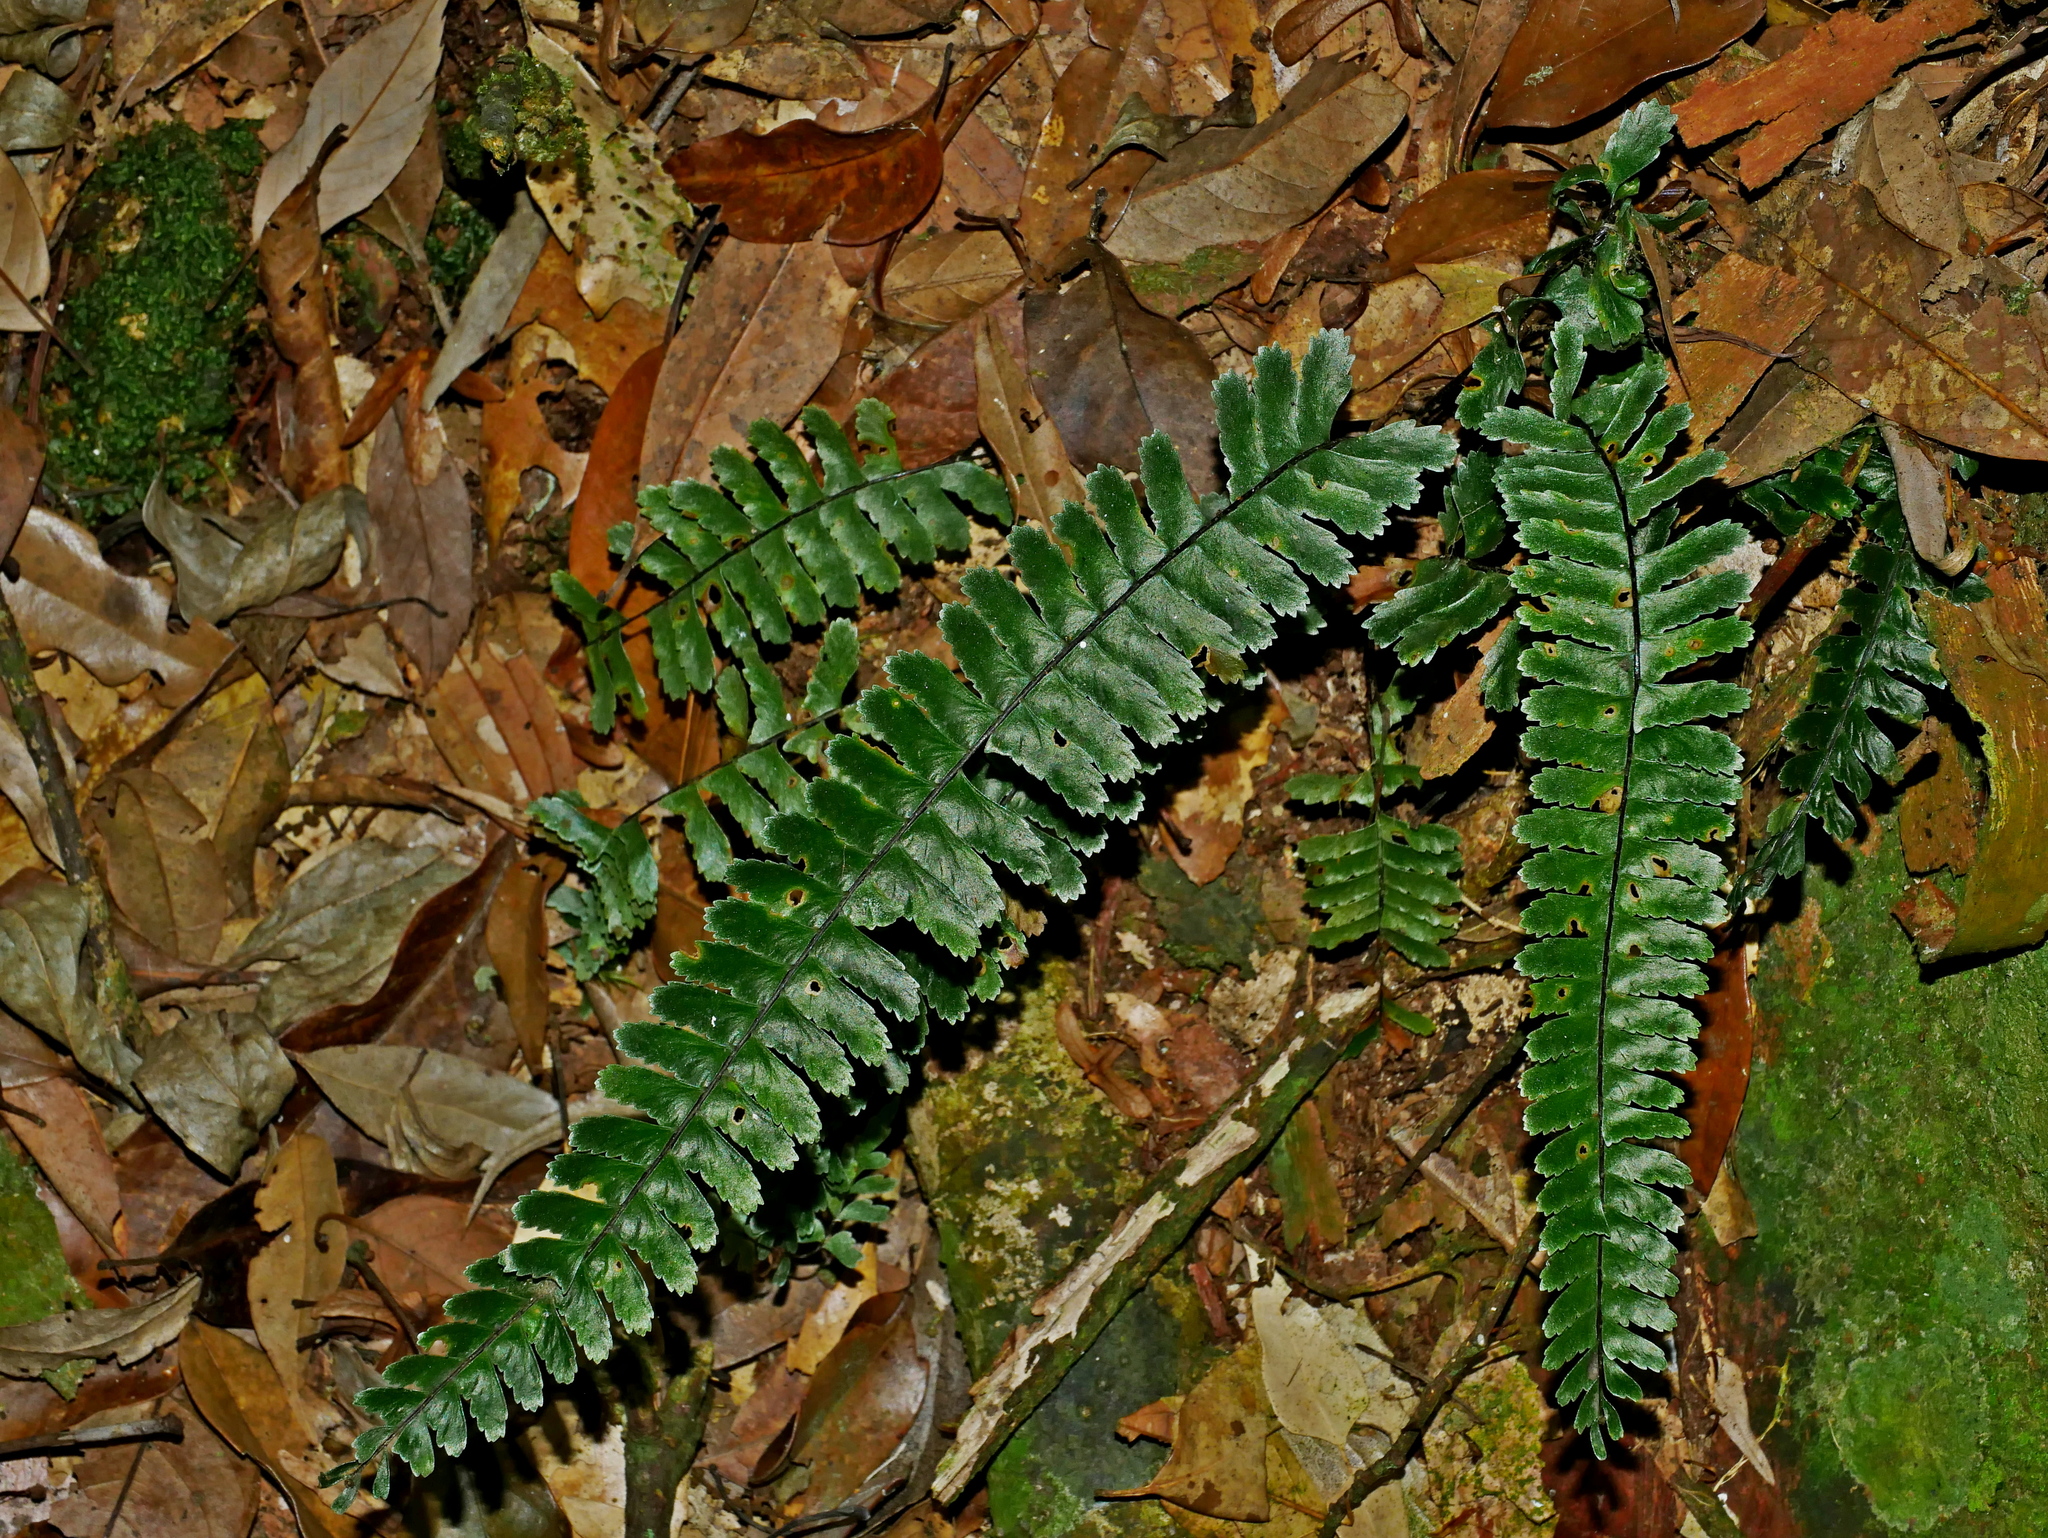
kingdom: Plantae
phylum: Tracheophyta
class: Polypodiopsida
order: Polypodiales
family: Aspleniaceae
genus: Asplenium
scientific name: Asplenium normale
